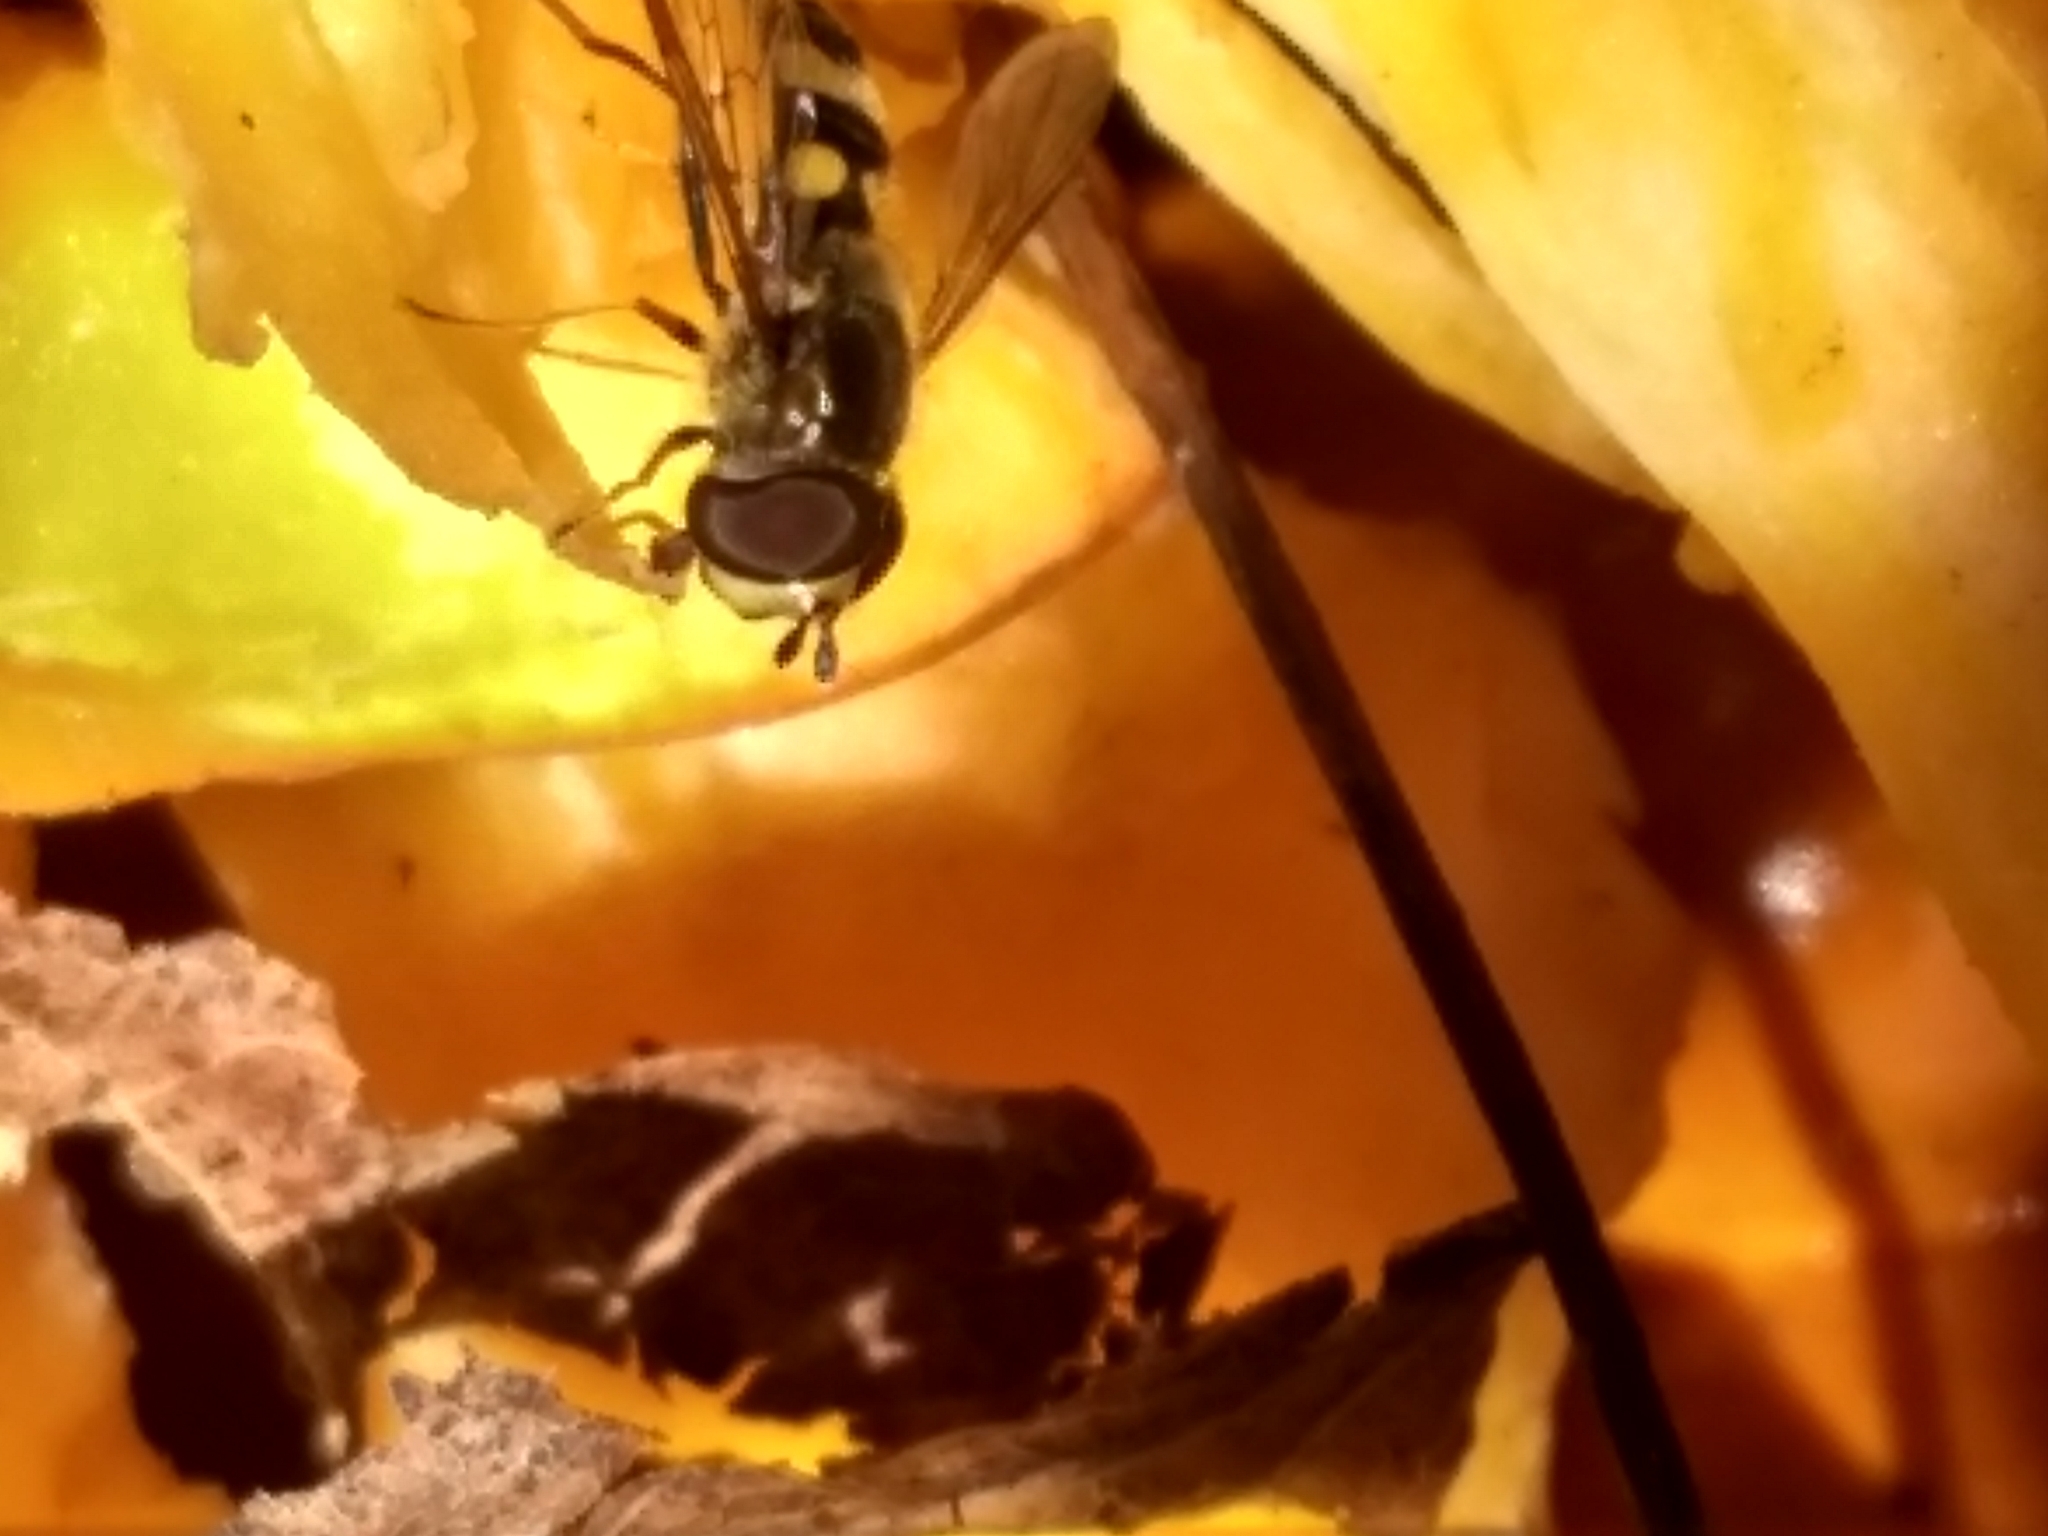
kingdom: Animalia
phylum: Arthropoda
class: Insecta
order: Diptera
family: Syrphidae
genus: Eupeodes
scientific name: Eupeodes
